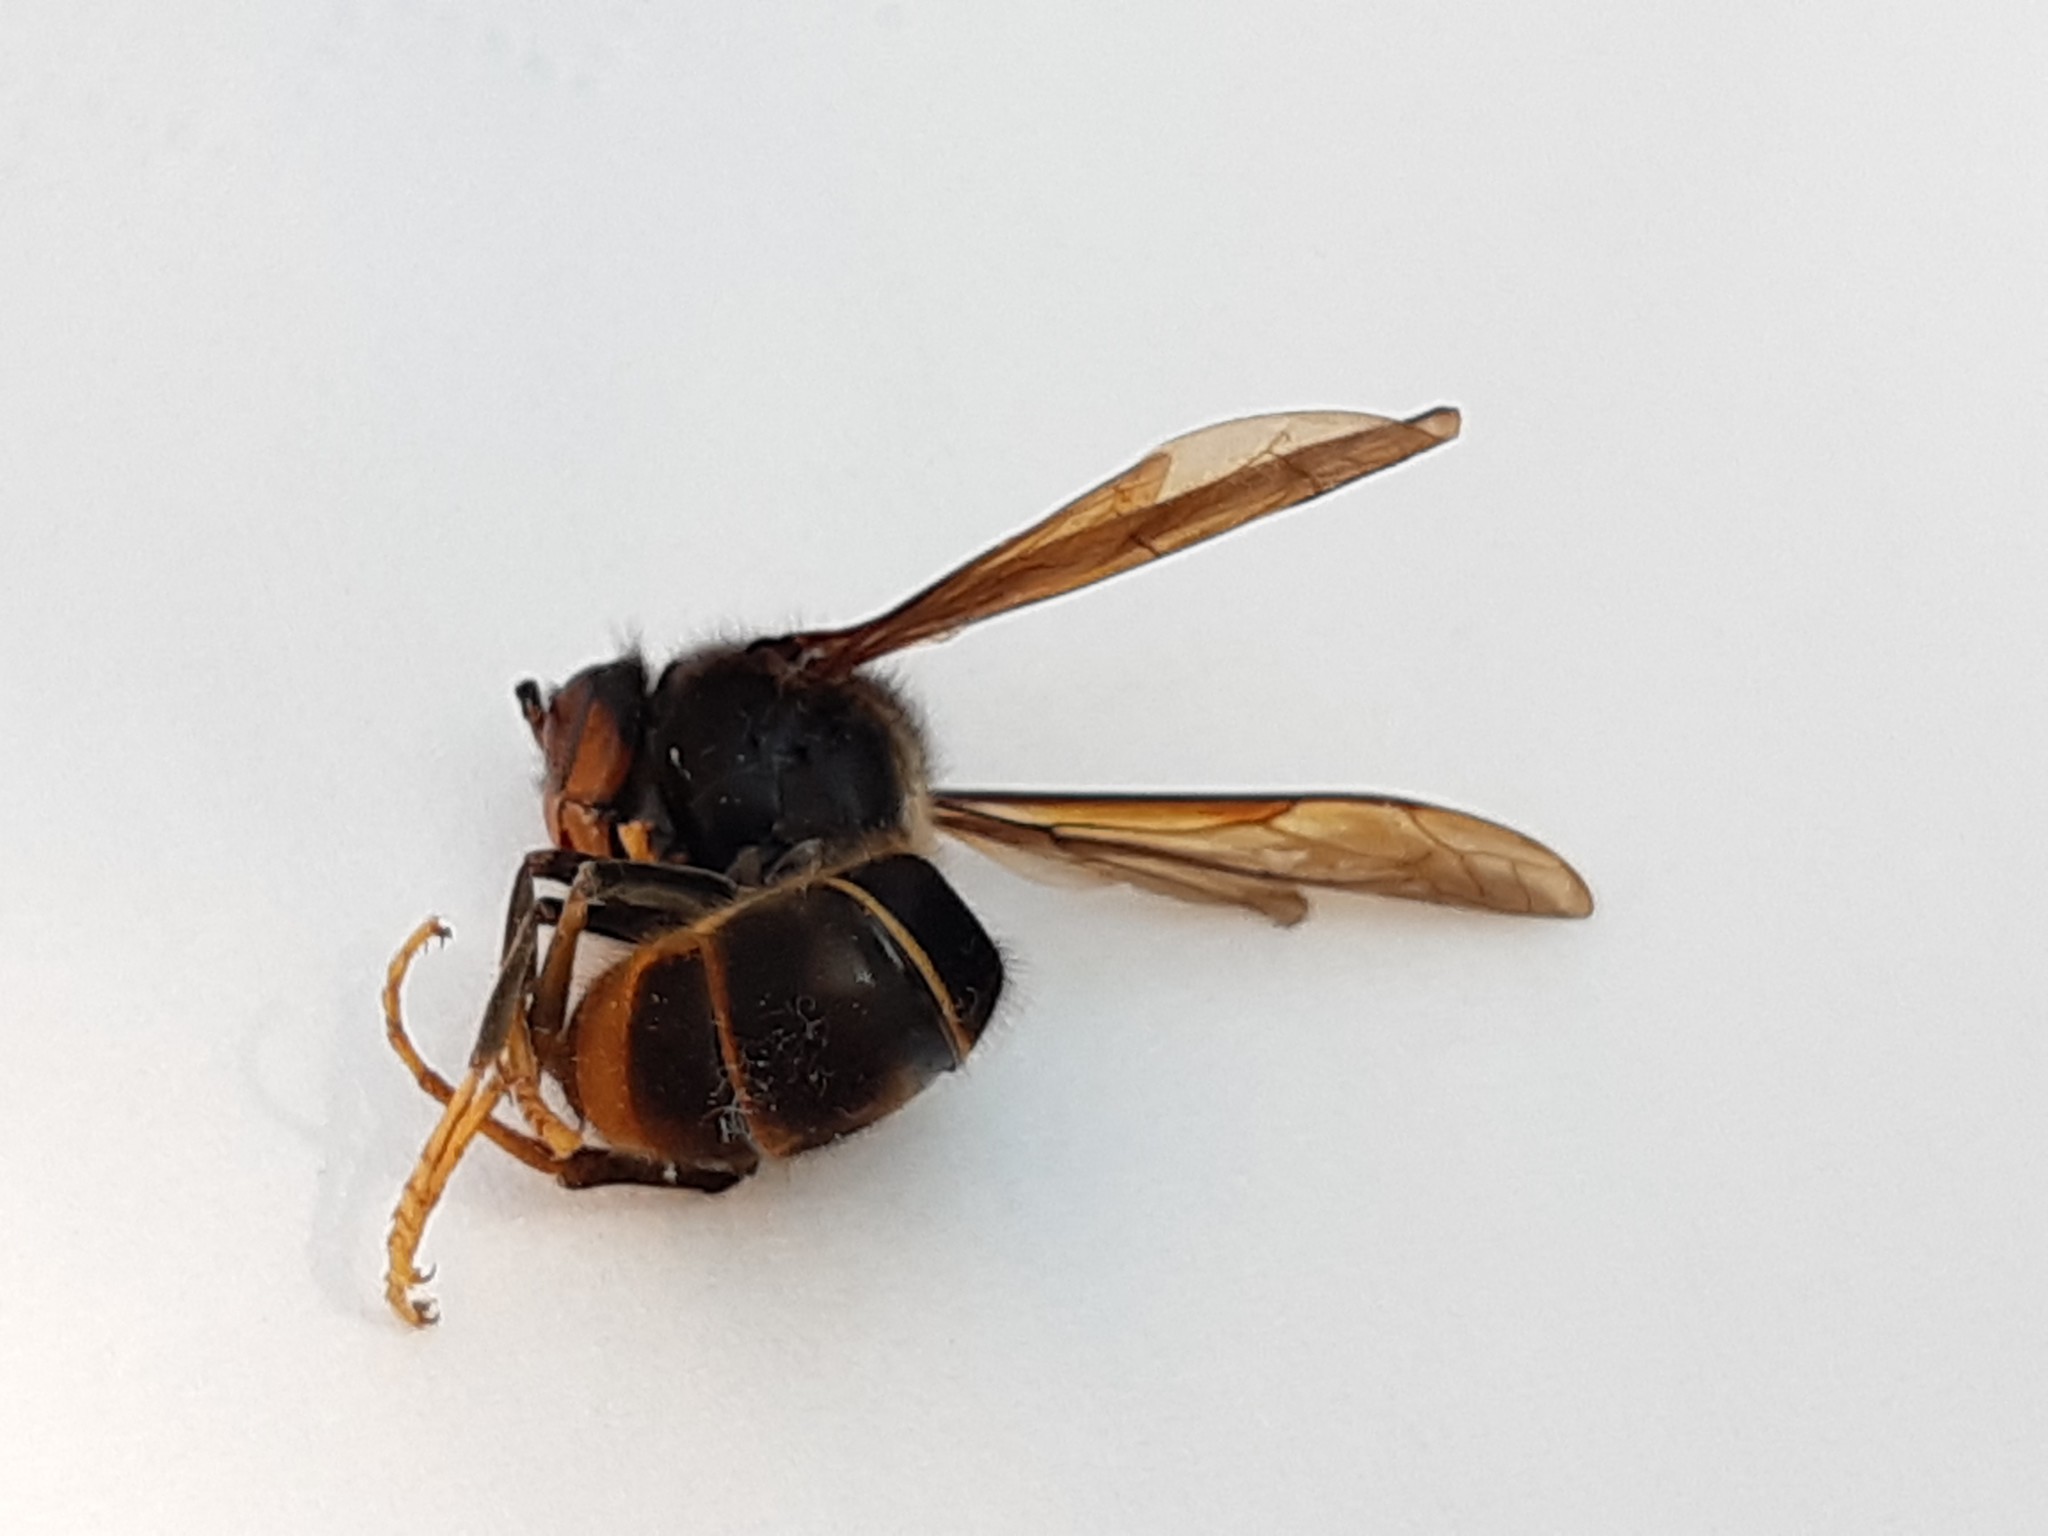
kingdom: Animalia
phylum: Arthropoda
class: Insecta
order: Hymenoptera
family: Vespidae
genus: Vespa
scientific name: Vespa velutina
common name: Asian hornet
